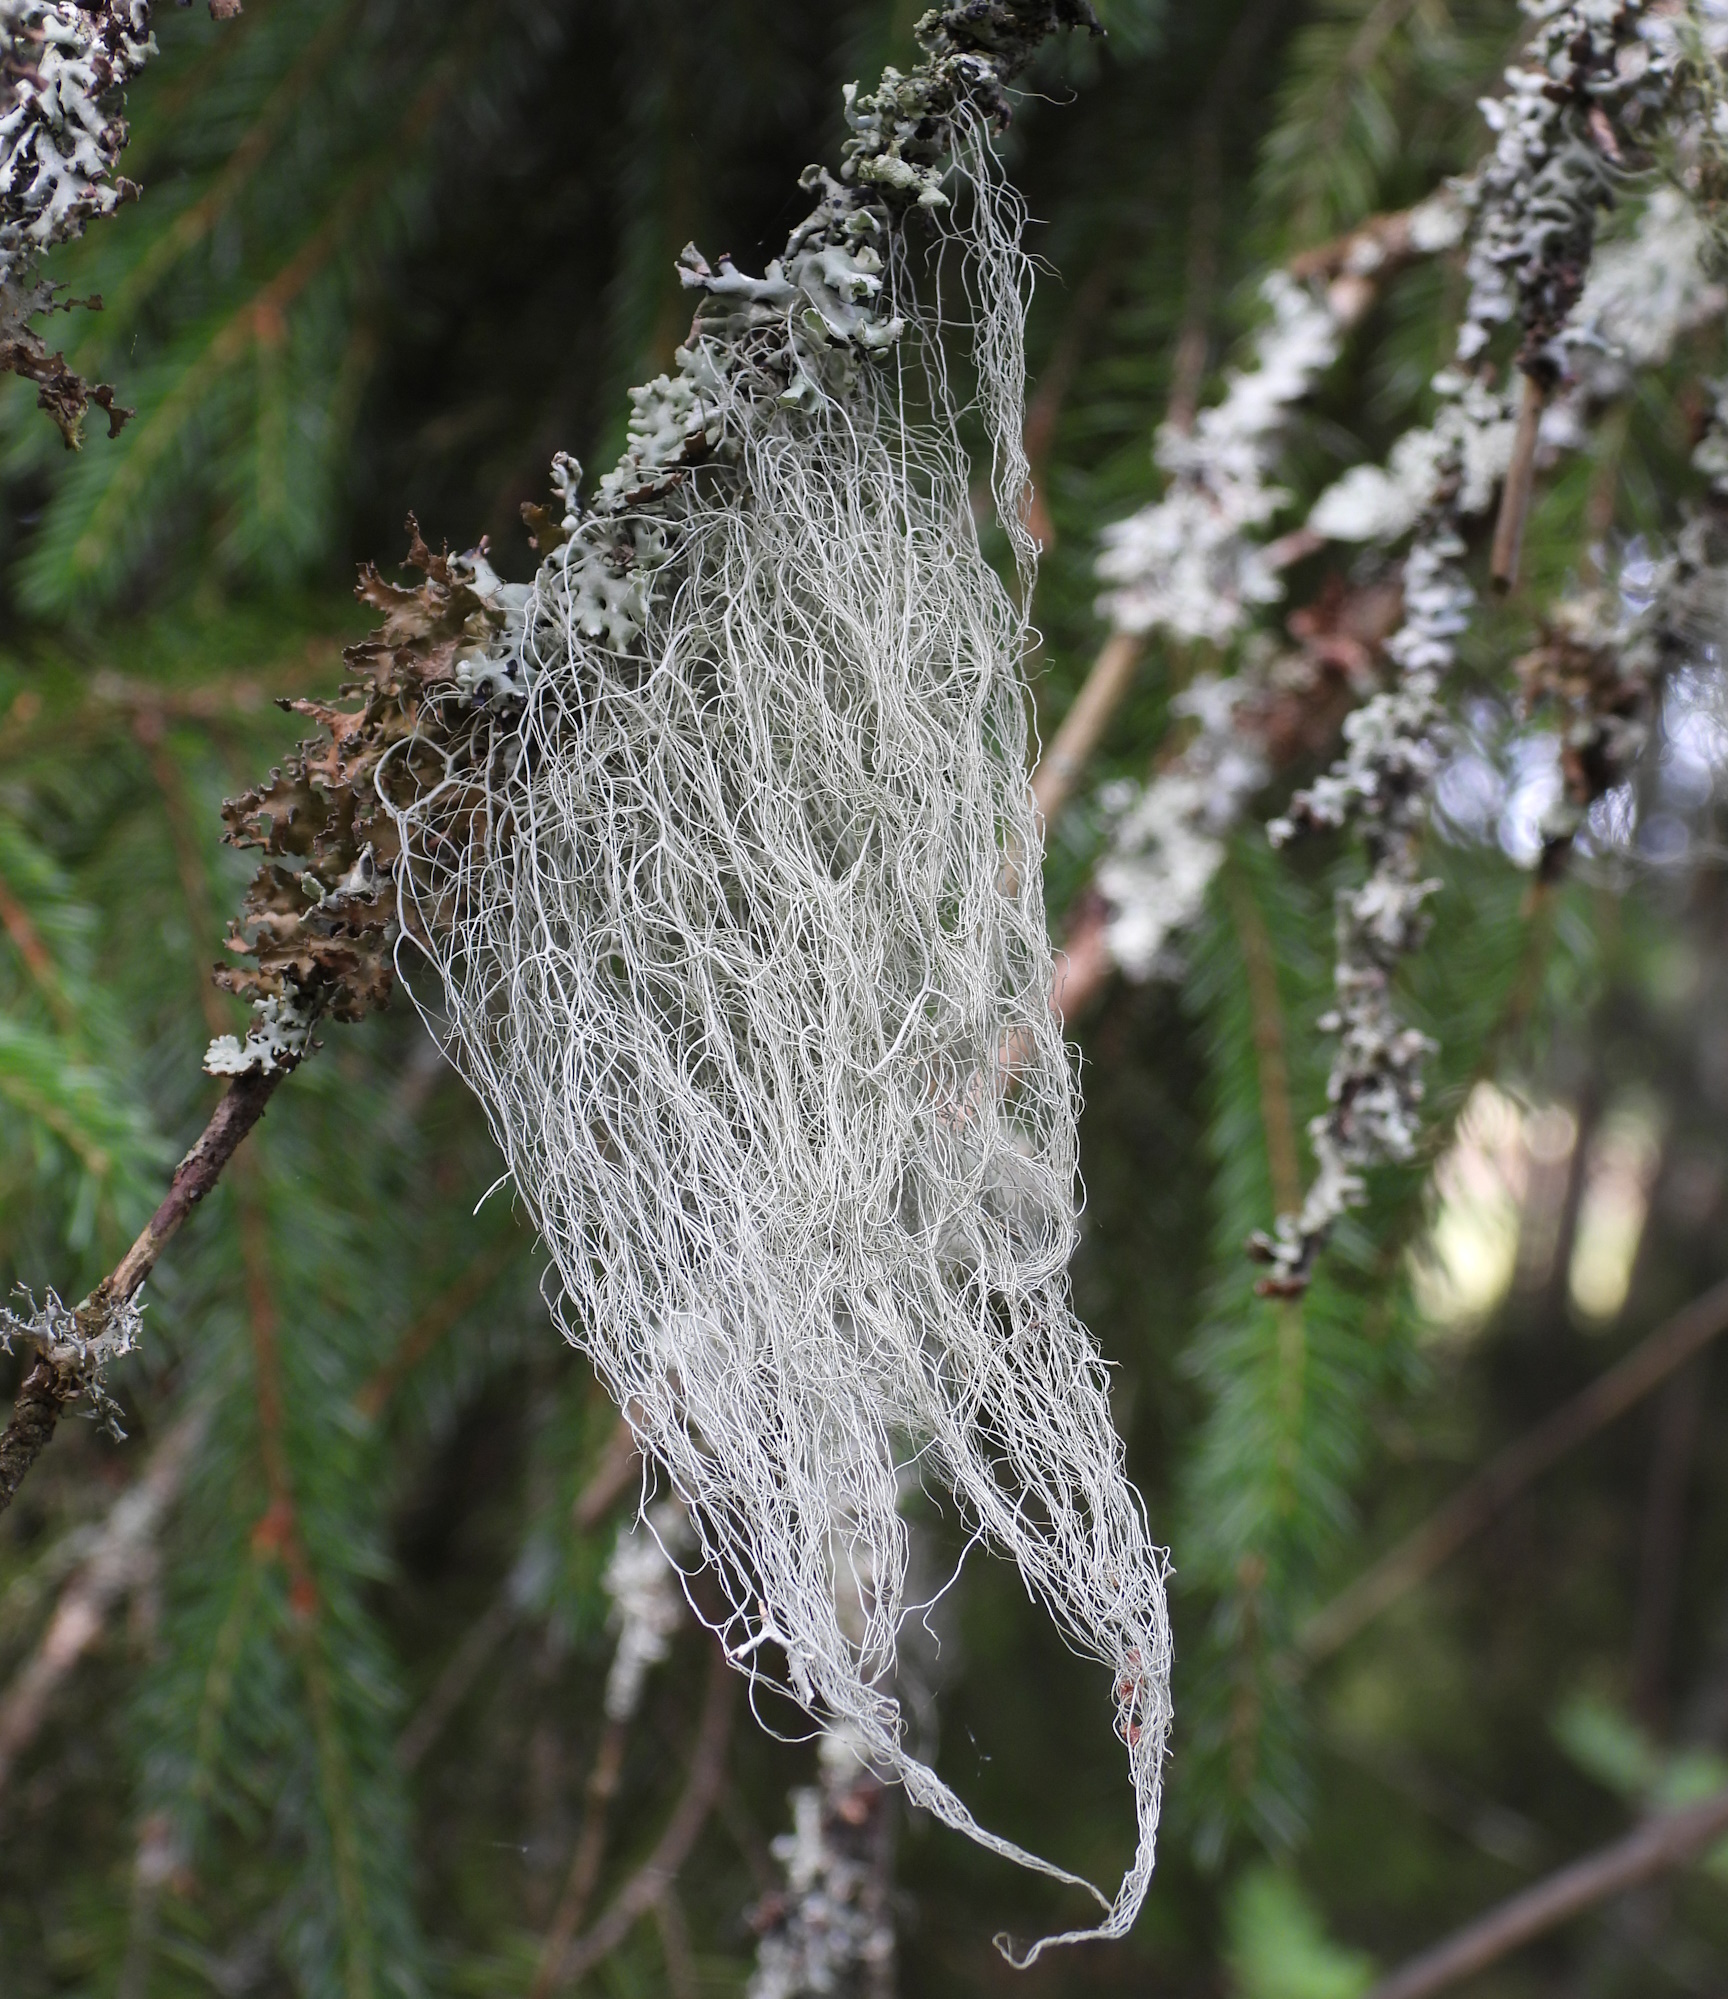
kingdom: Fungi
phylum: Ascomycota
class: Lecanoromycetes
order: Lecanorales
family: Parmeliaceae
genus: Bryoria
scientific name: Bryoria fuscescens
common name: Pale-footed horsehair lichen
